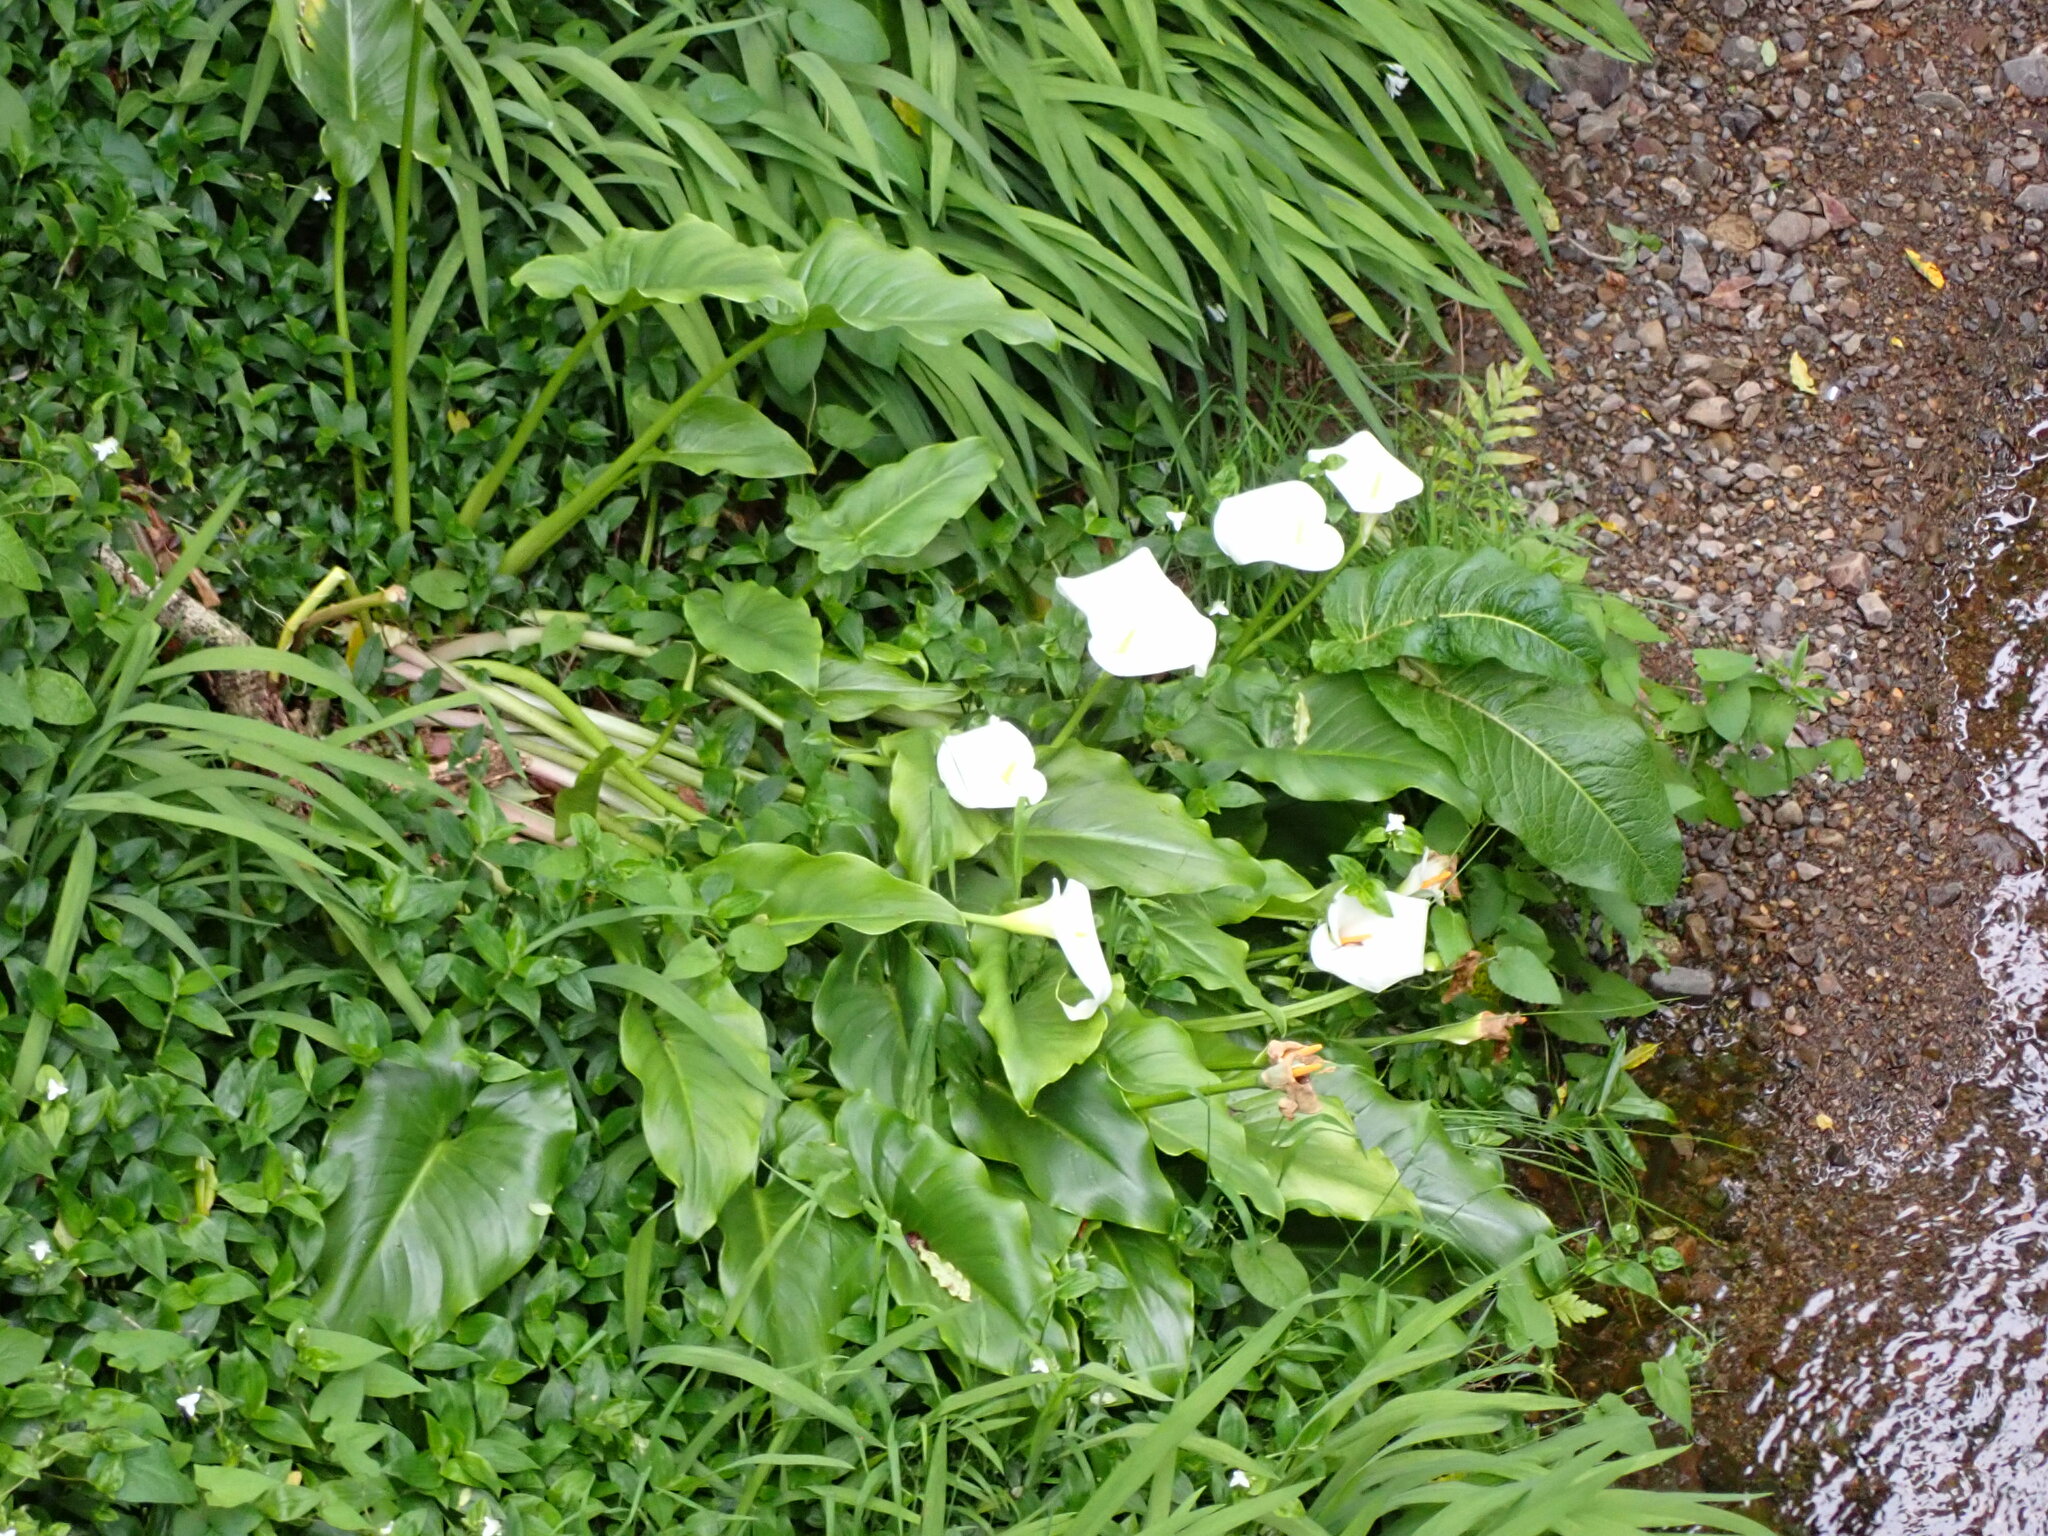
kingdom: Plantae
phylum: Tracheophyta
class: Liliopsida
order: Alismatales
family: Araceae
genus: Zantedeschia
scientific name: Zantedeschia aethiopica
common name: Altar-lily
